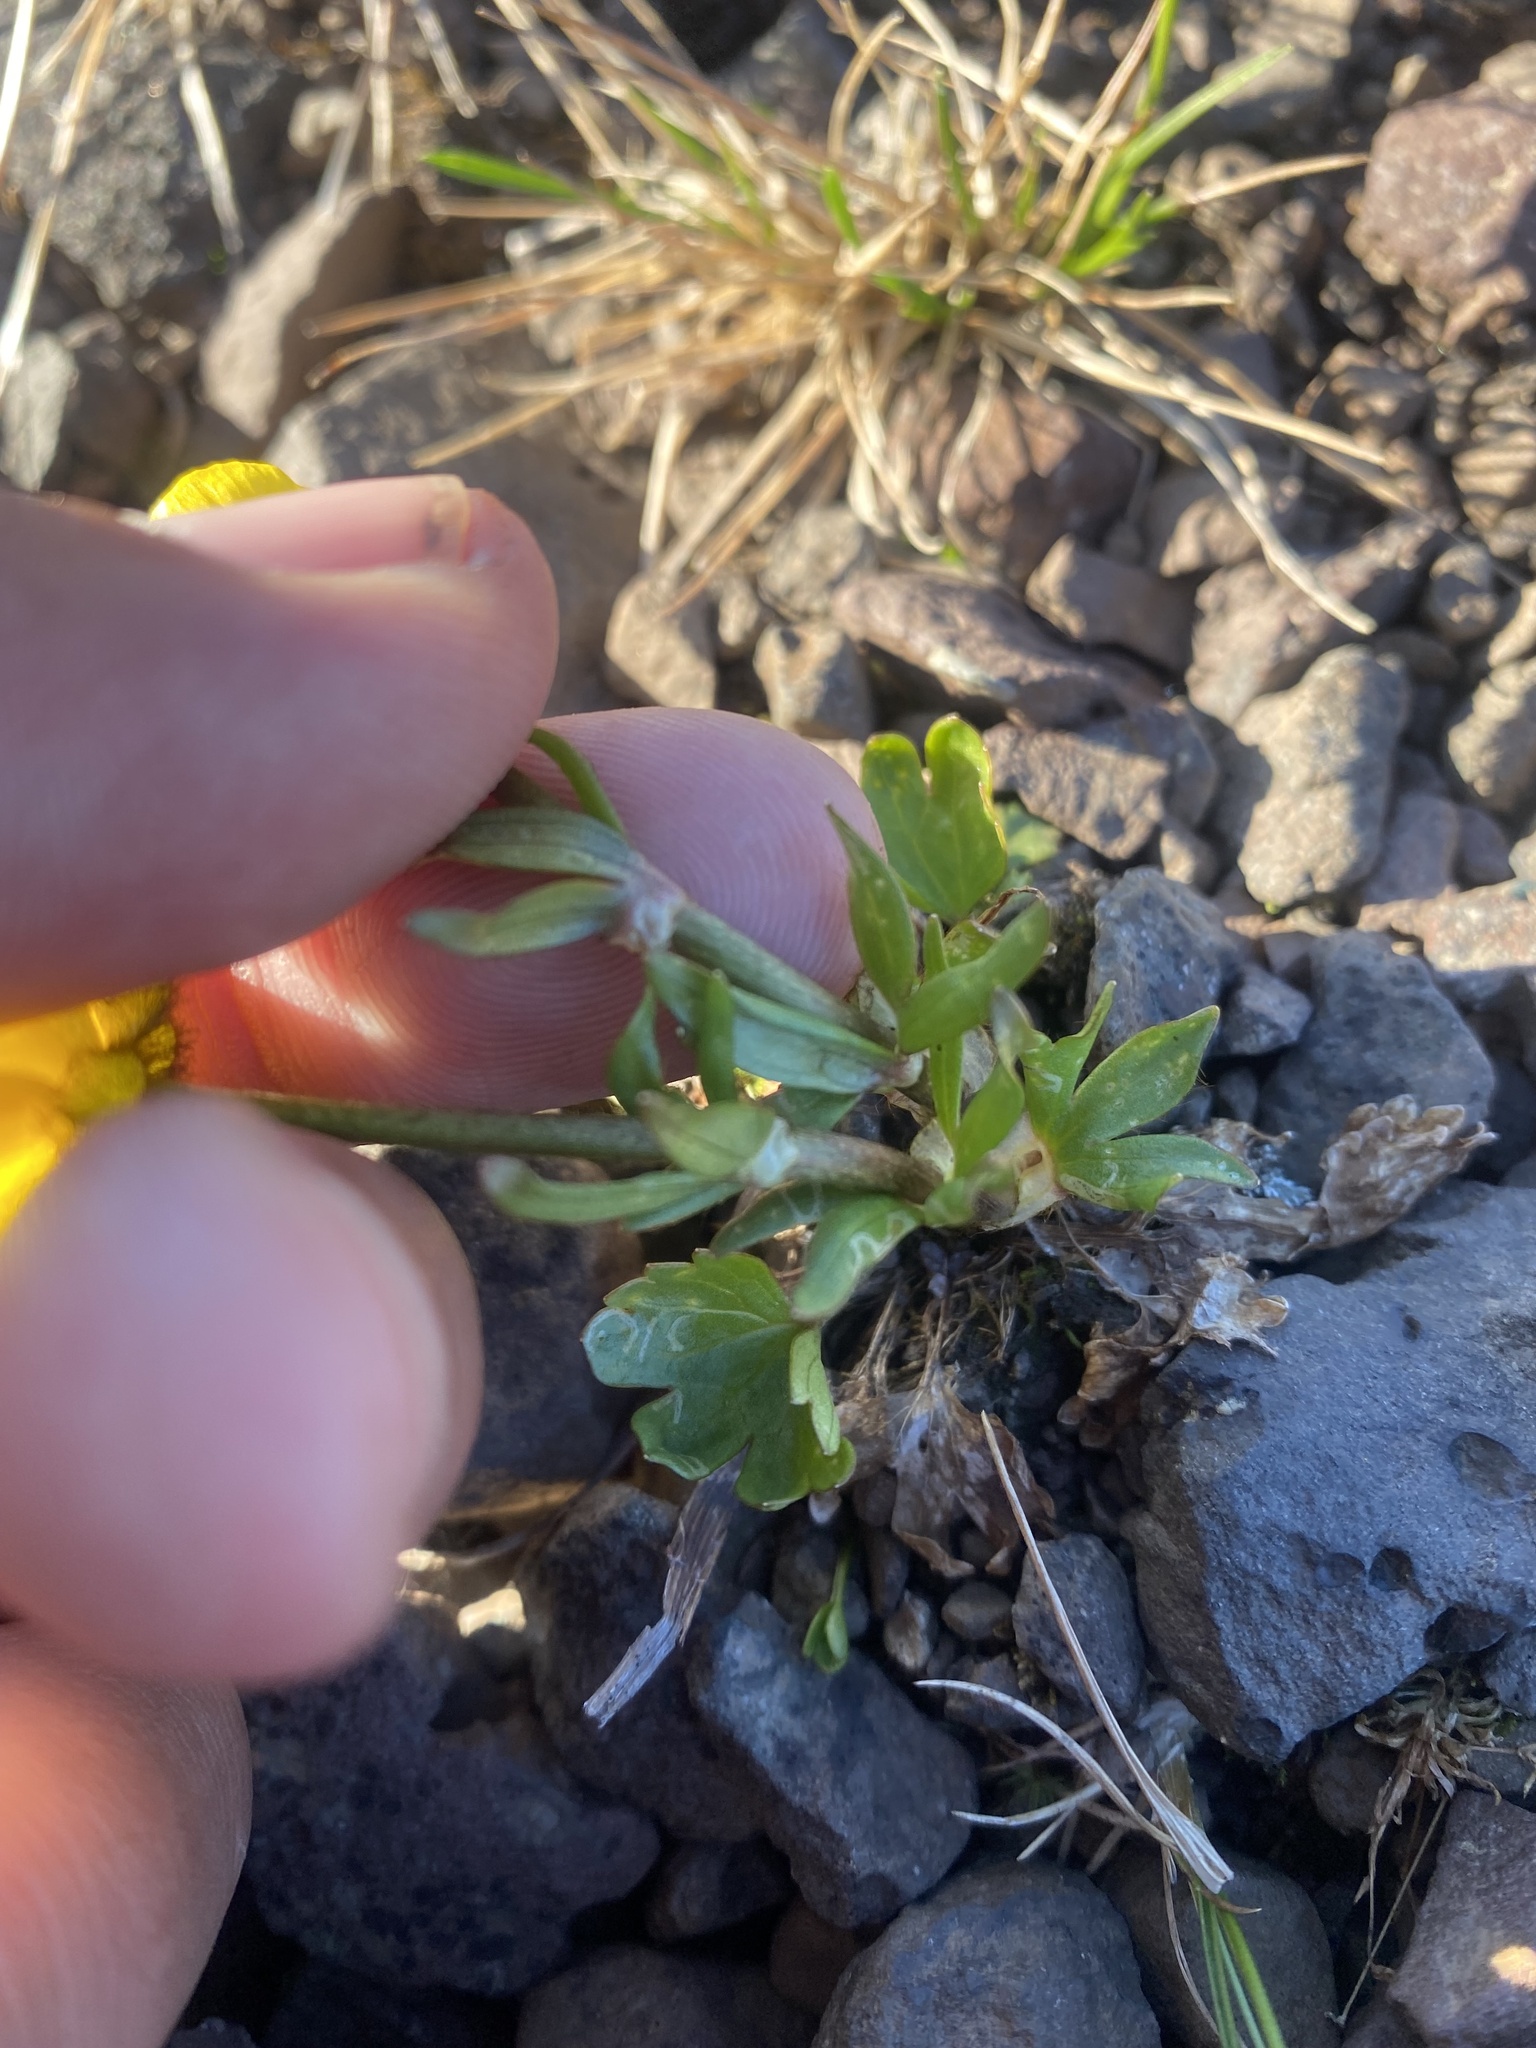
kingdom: Plantae
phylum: Tracheophyta
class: Magnoliopsida
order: Ranunculales
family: Ranunculaceae
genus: Ranunculus
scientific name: Ranunculus sulphureus
